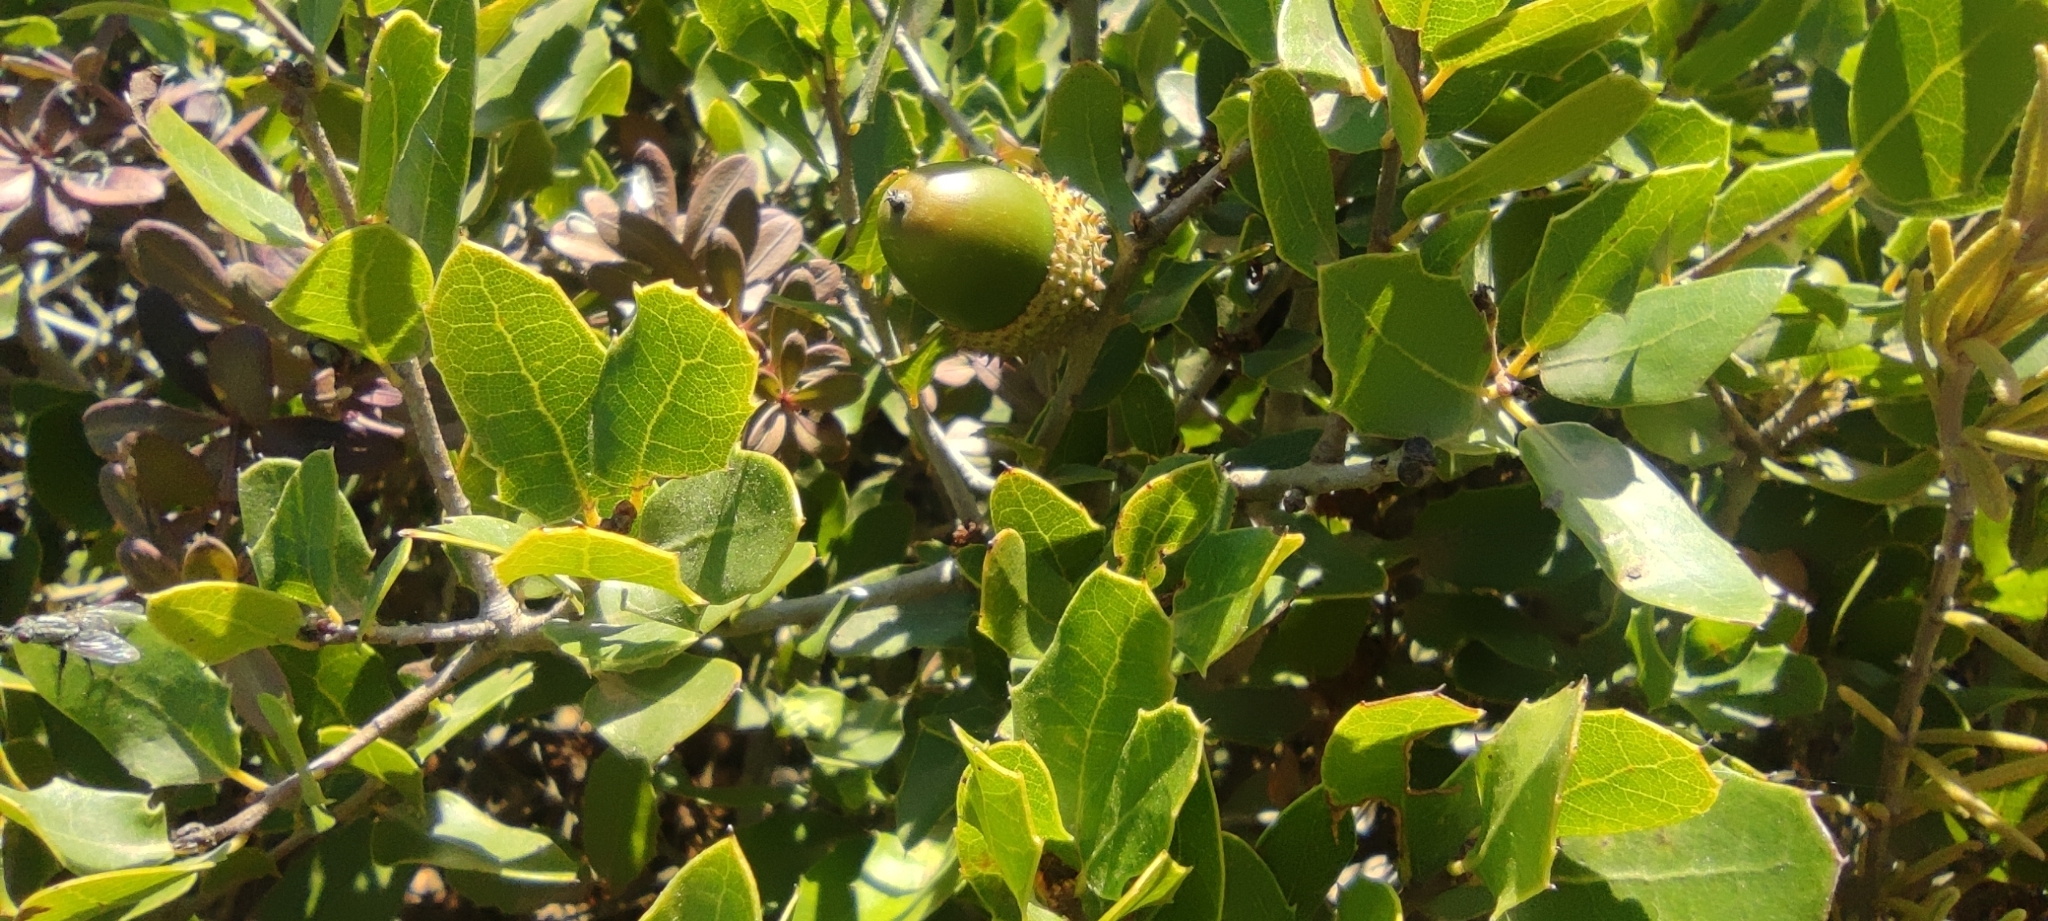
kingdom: Plantae
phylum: Tracheophyta
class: Magnoliopsida
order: Fagales
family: Fagaceae
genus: Quercus
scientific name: Quercus coccifera
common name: Kermes oak
